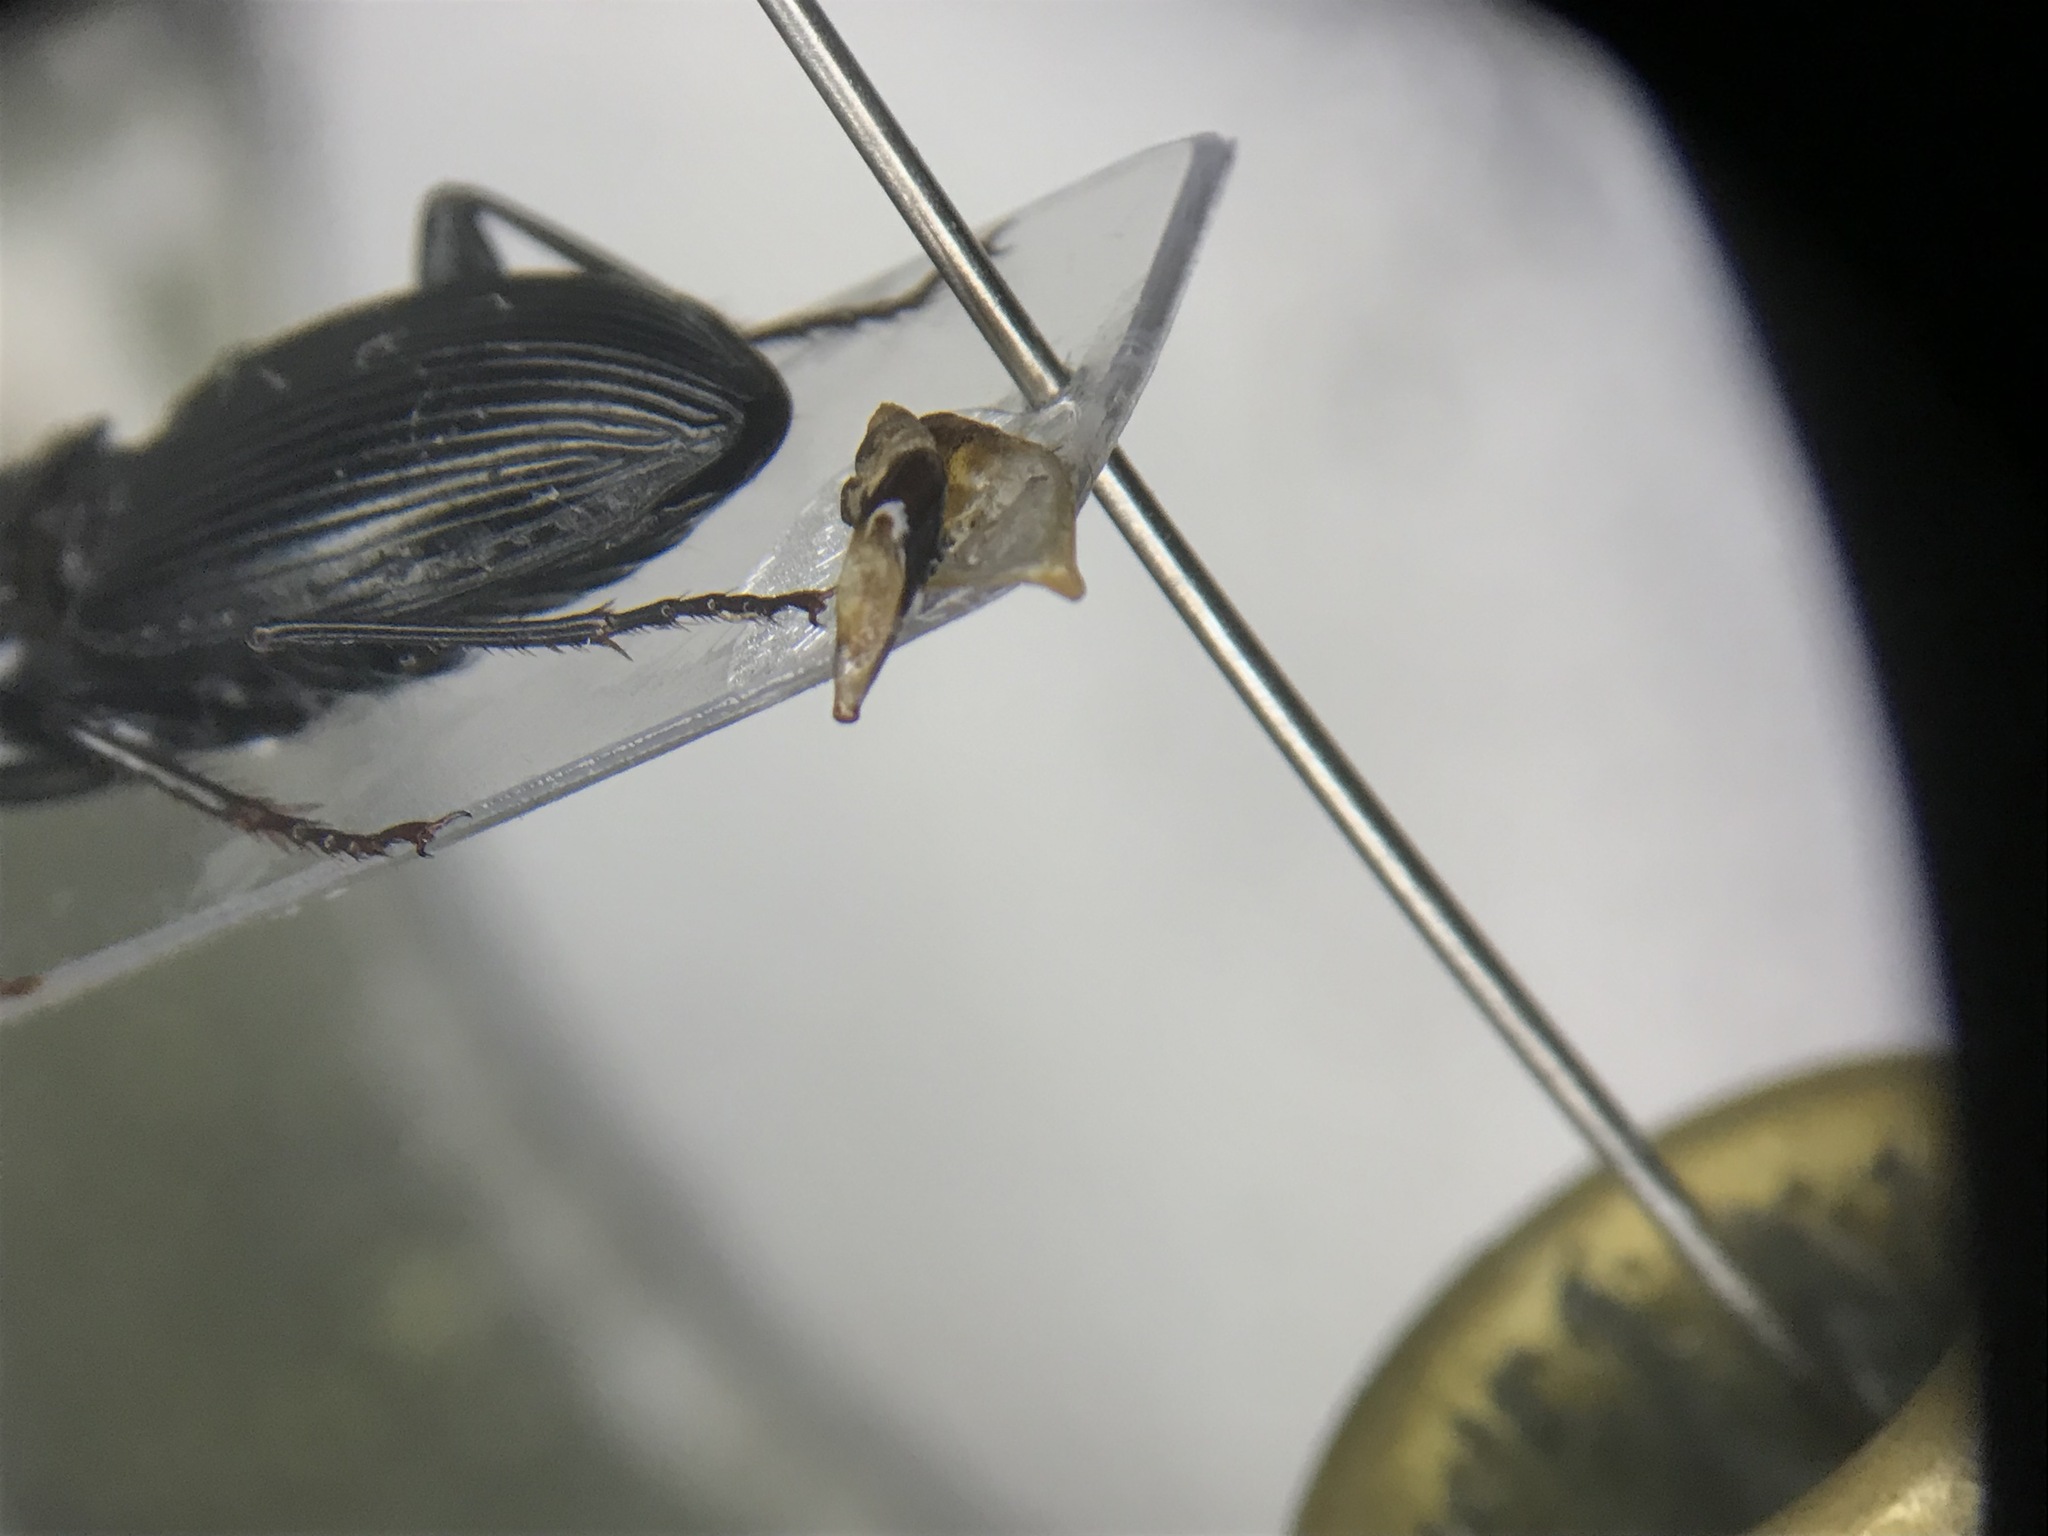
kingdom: Animalia
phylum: Arthropoda
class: Insecta
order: Coleoptera
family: Carabidae
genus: Pterostichus
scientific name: Pterostichus stygicus
